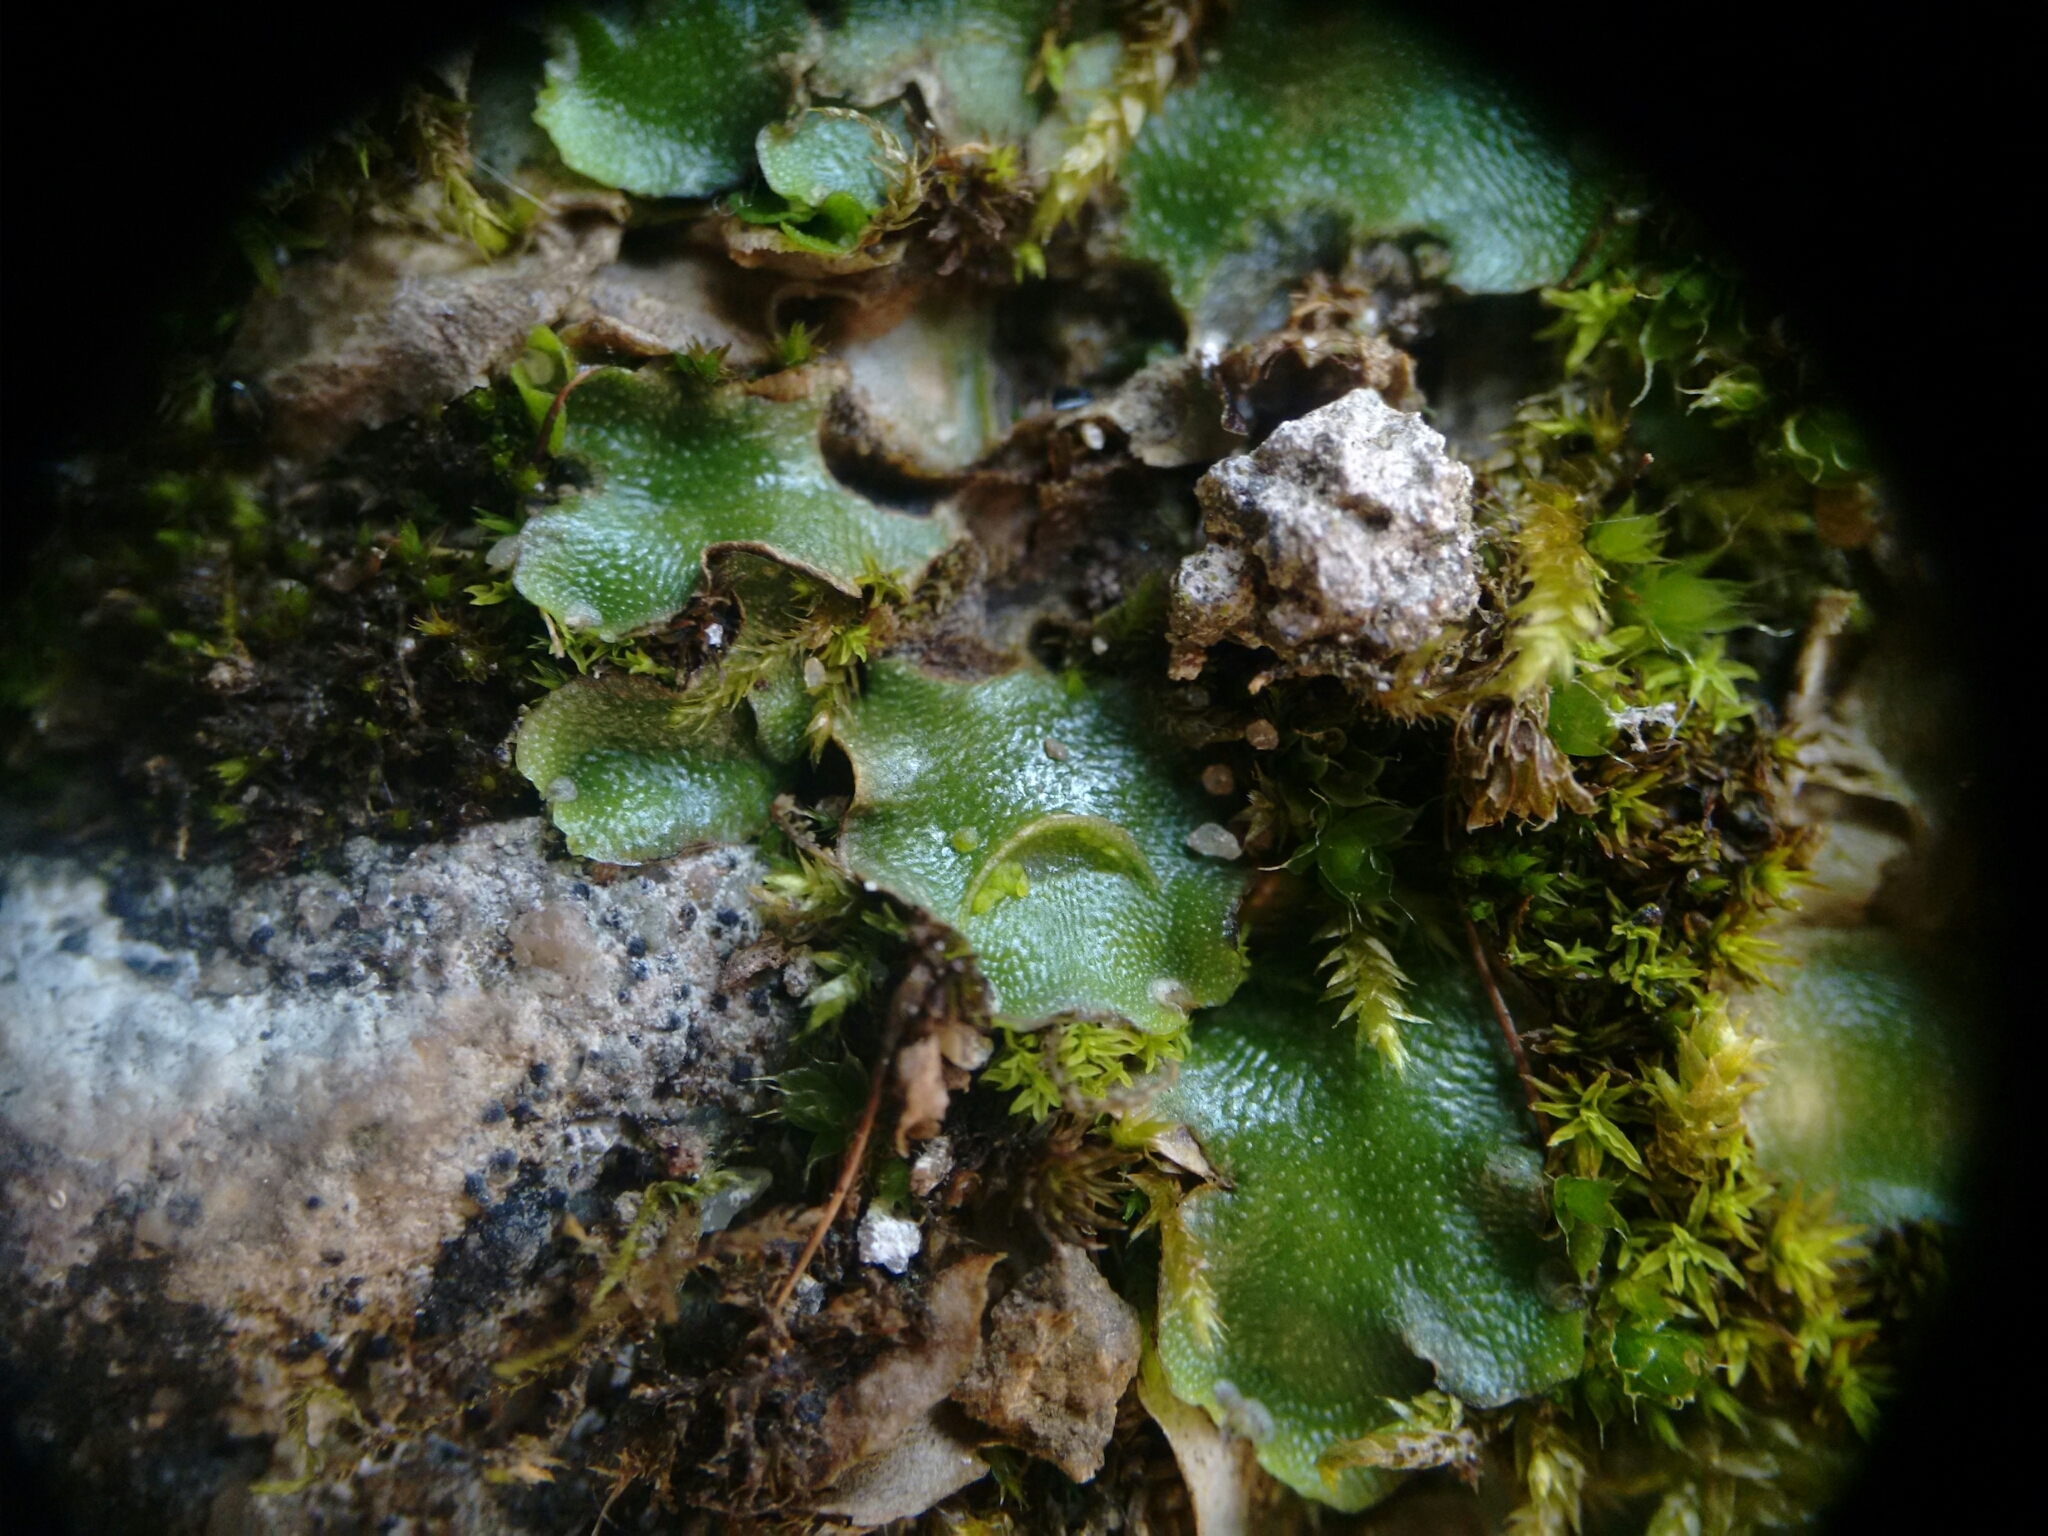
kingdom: Plantae
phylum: Marchantiophyta
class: Marchantiopsida
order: Lunulariales
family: Lunulariaceae
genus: Lunularia
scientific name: Lunularia cruciata
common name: Crescent-cup liverwort
